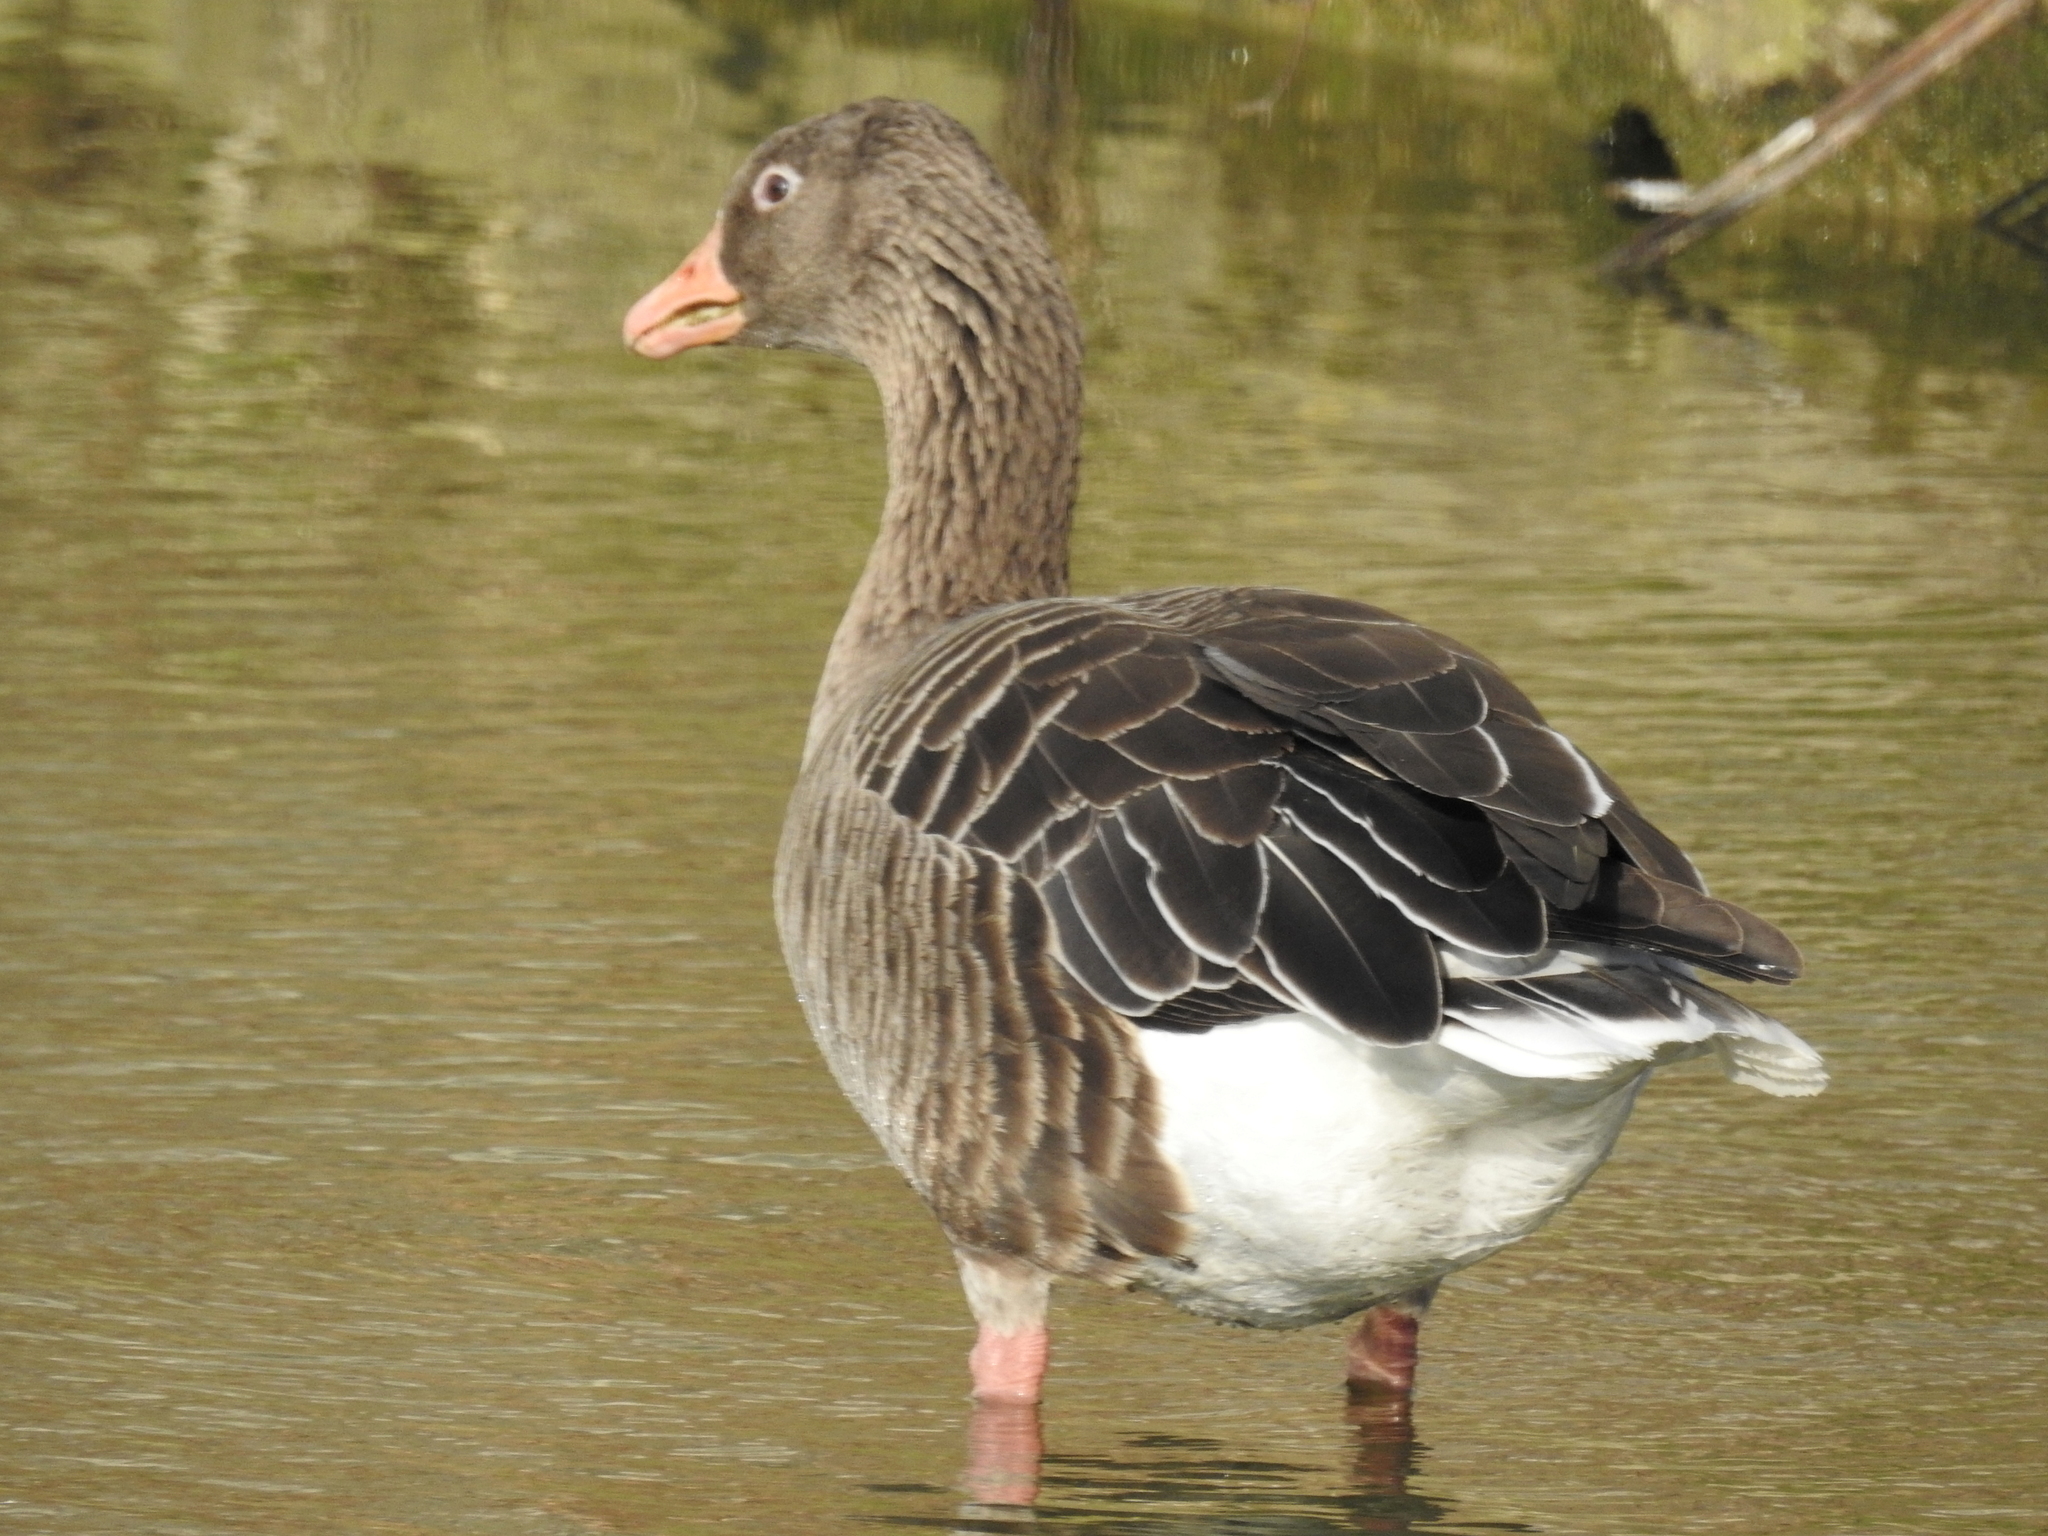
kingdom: Animalia
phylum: Chordata
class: Aves
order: Anseriformes
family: Anatidae
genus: Anser
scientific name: Anser anser
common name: Greylag goose
